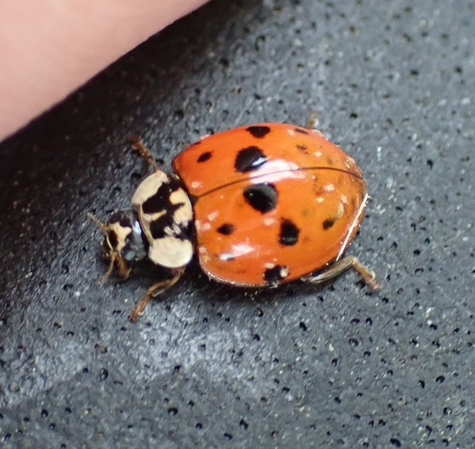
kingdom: Animalia
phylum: Arthropoda
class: Insecta
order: Coleoptera
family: Coccinellidae
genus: Harmonia
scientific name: Harmonia axyridis
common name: Harlequin ladybird
